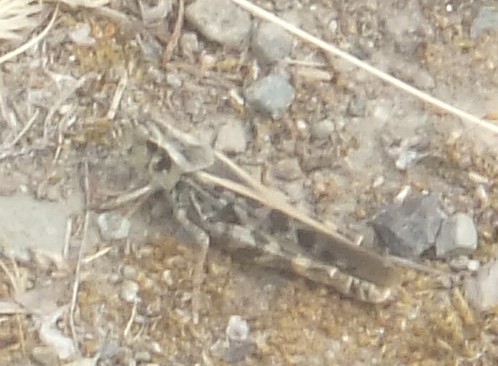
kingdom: Animalia
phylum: Arthropoda
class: Insecta
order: Orthoptera
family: Acrididae
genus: Camnula
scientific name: Camnula pellucida
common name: Clear-winged grasshopper
